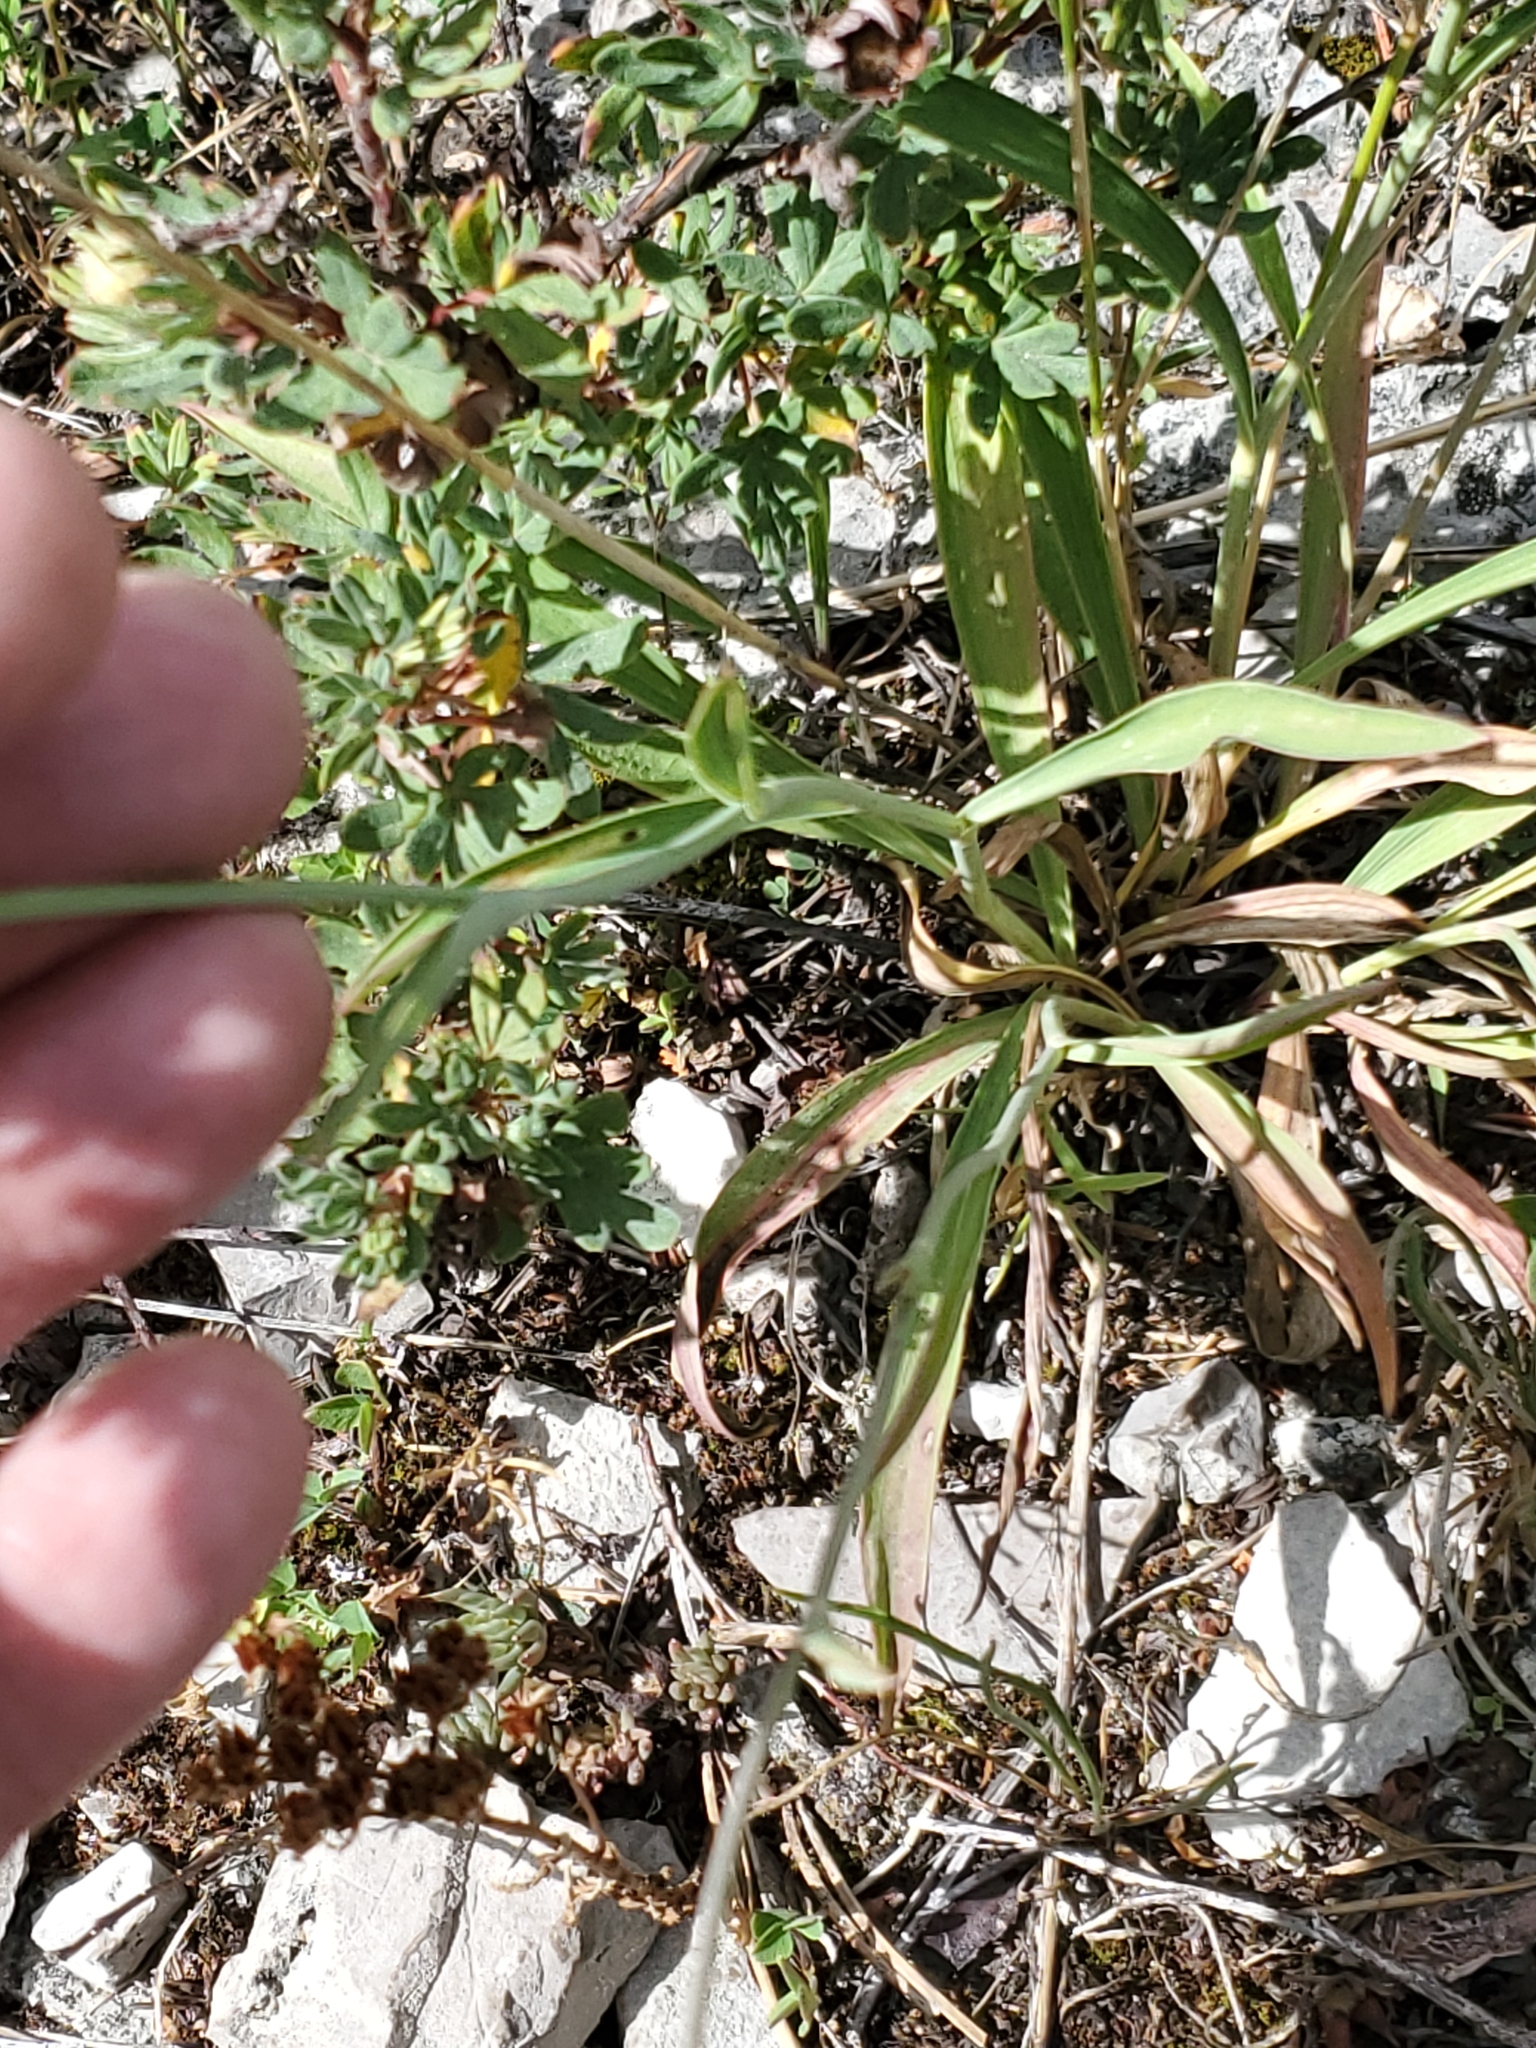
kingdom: Plantae
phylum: Tracheophyta
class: Magnoliopsida
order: Apiales
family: Apiaceae
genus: Bupleurum
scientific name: Bupleurum americanum
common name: American thoroughwax
